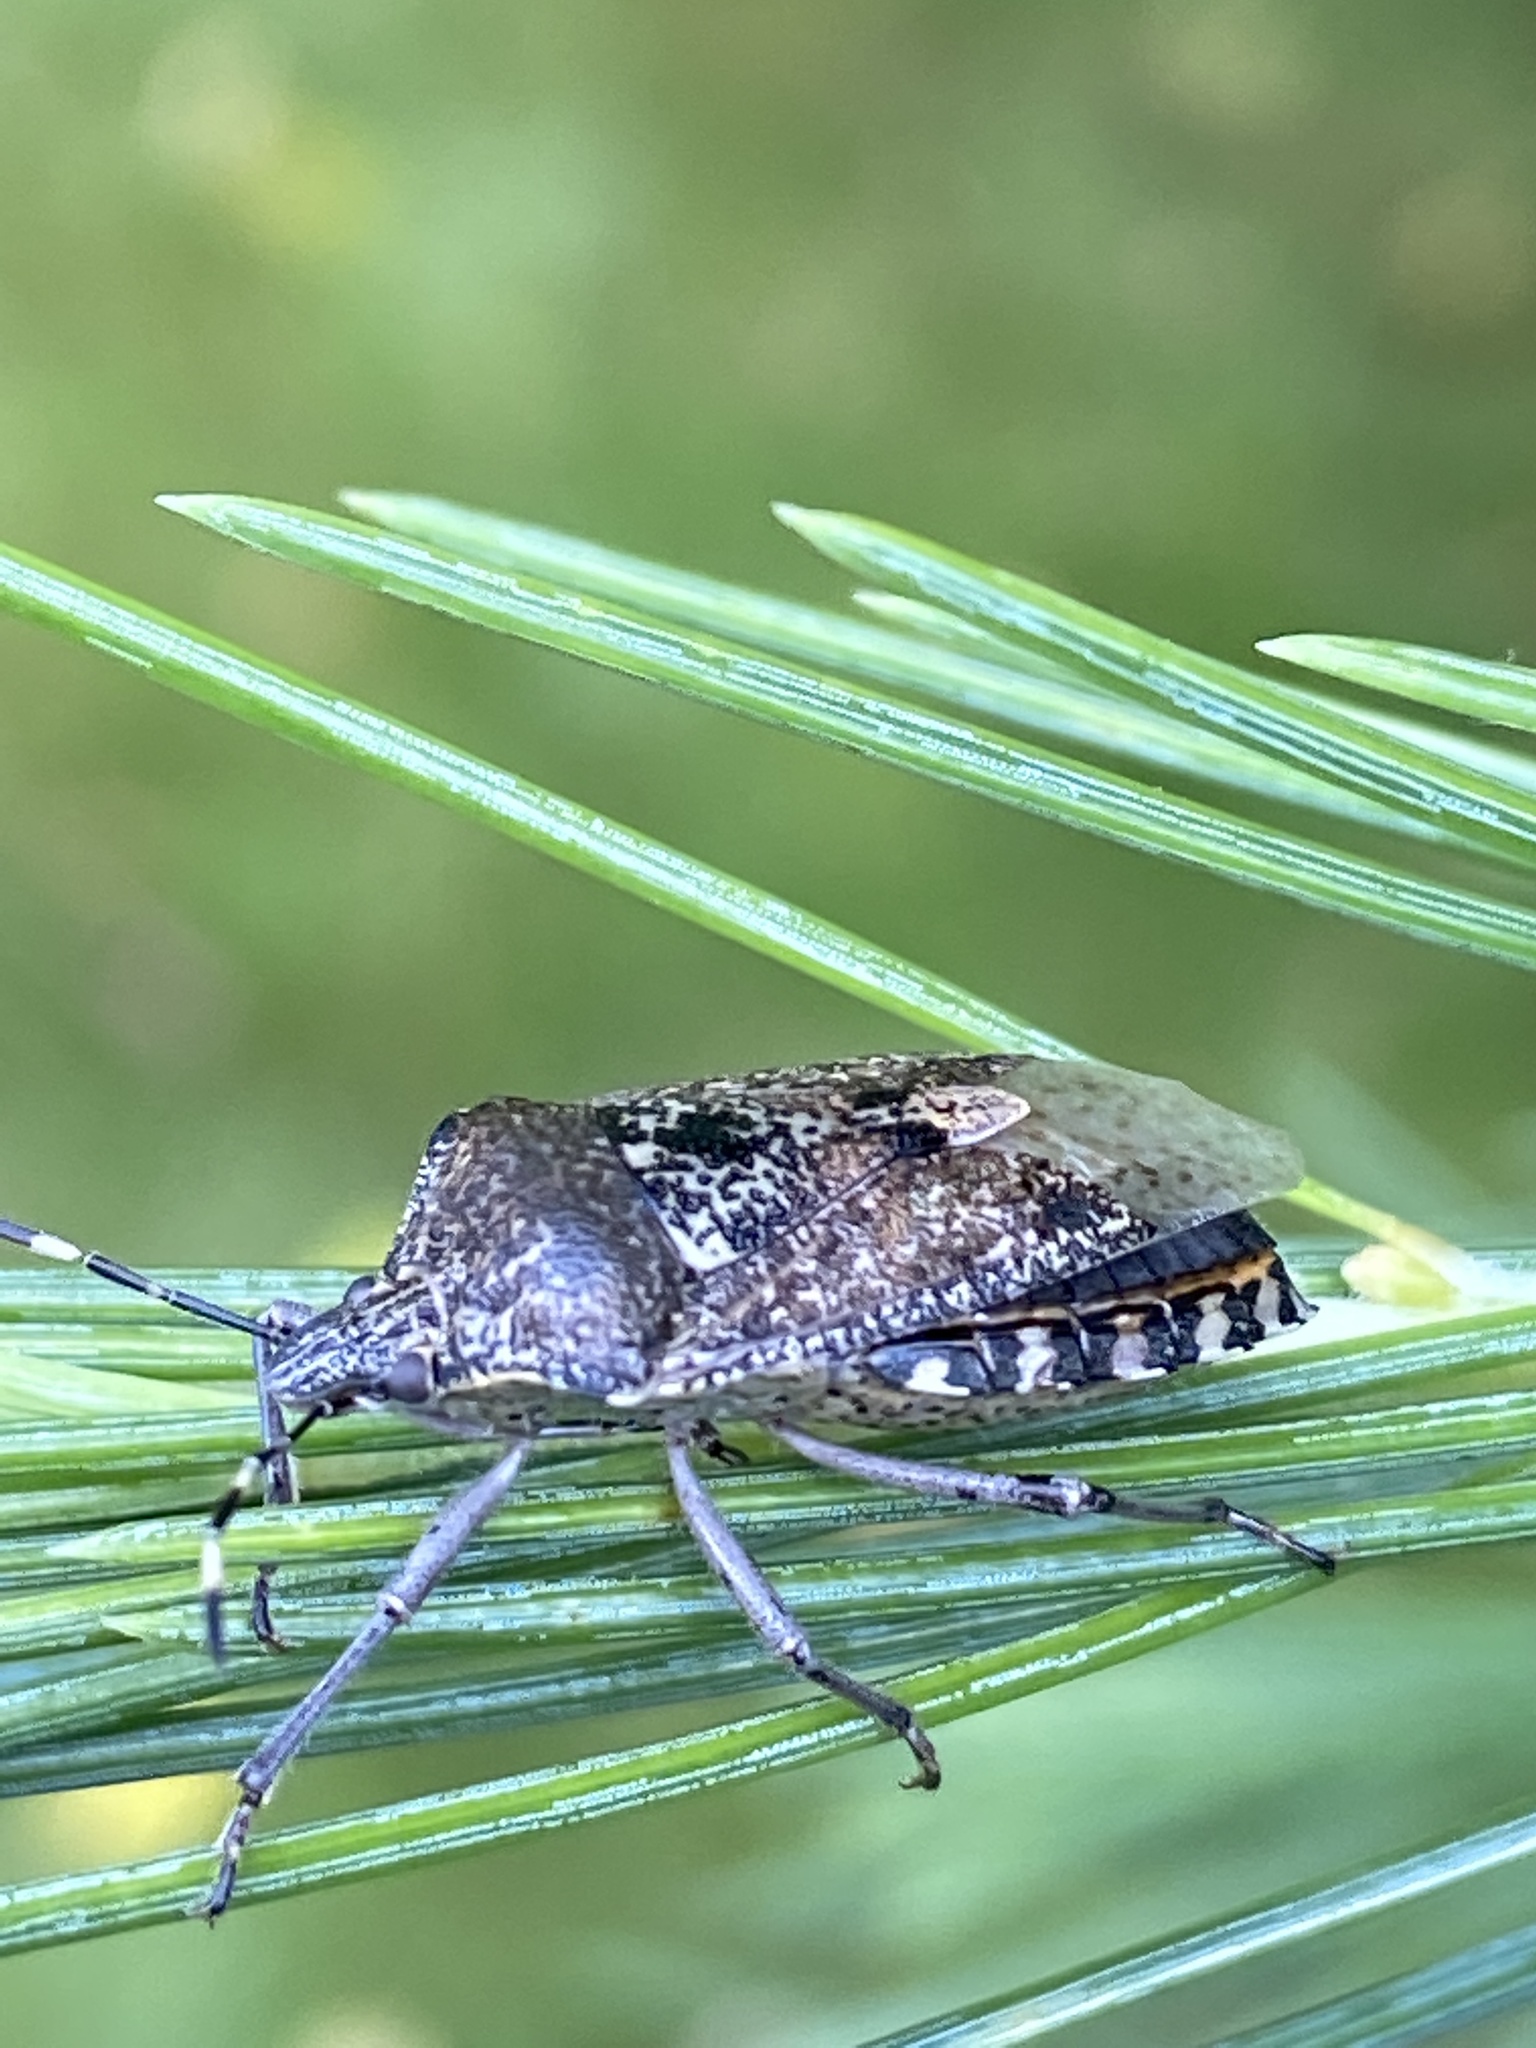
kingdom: Animalia
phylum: Arthropoda
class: Insecta
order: Hemiptera
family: Pentatomidae
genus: Rhaphigaster
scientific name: Rhaphigaster nebulosa
